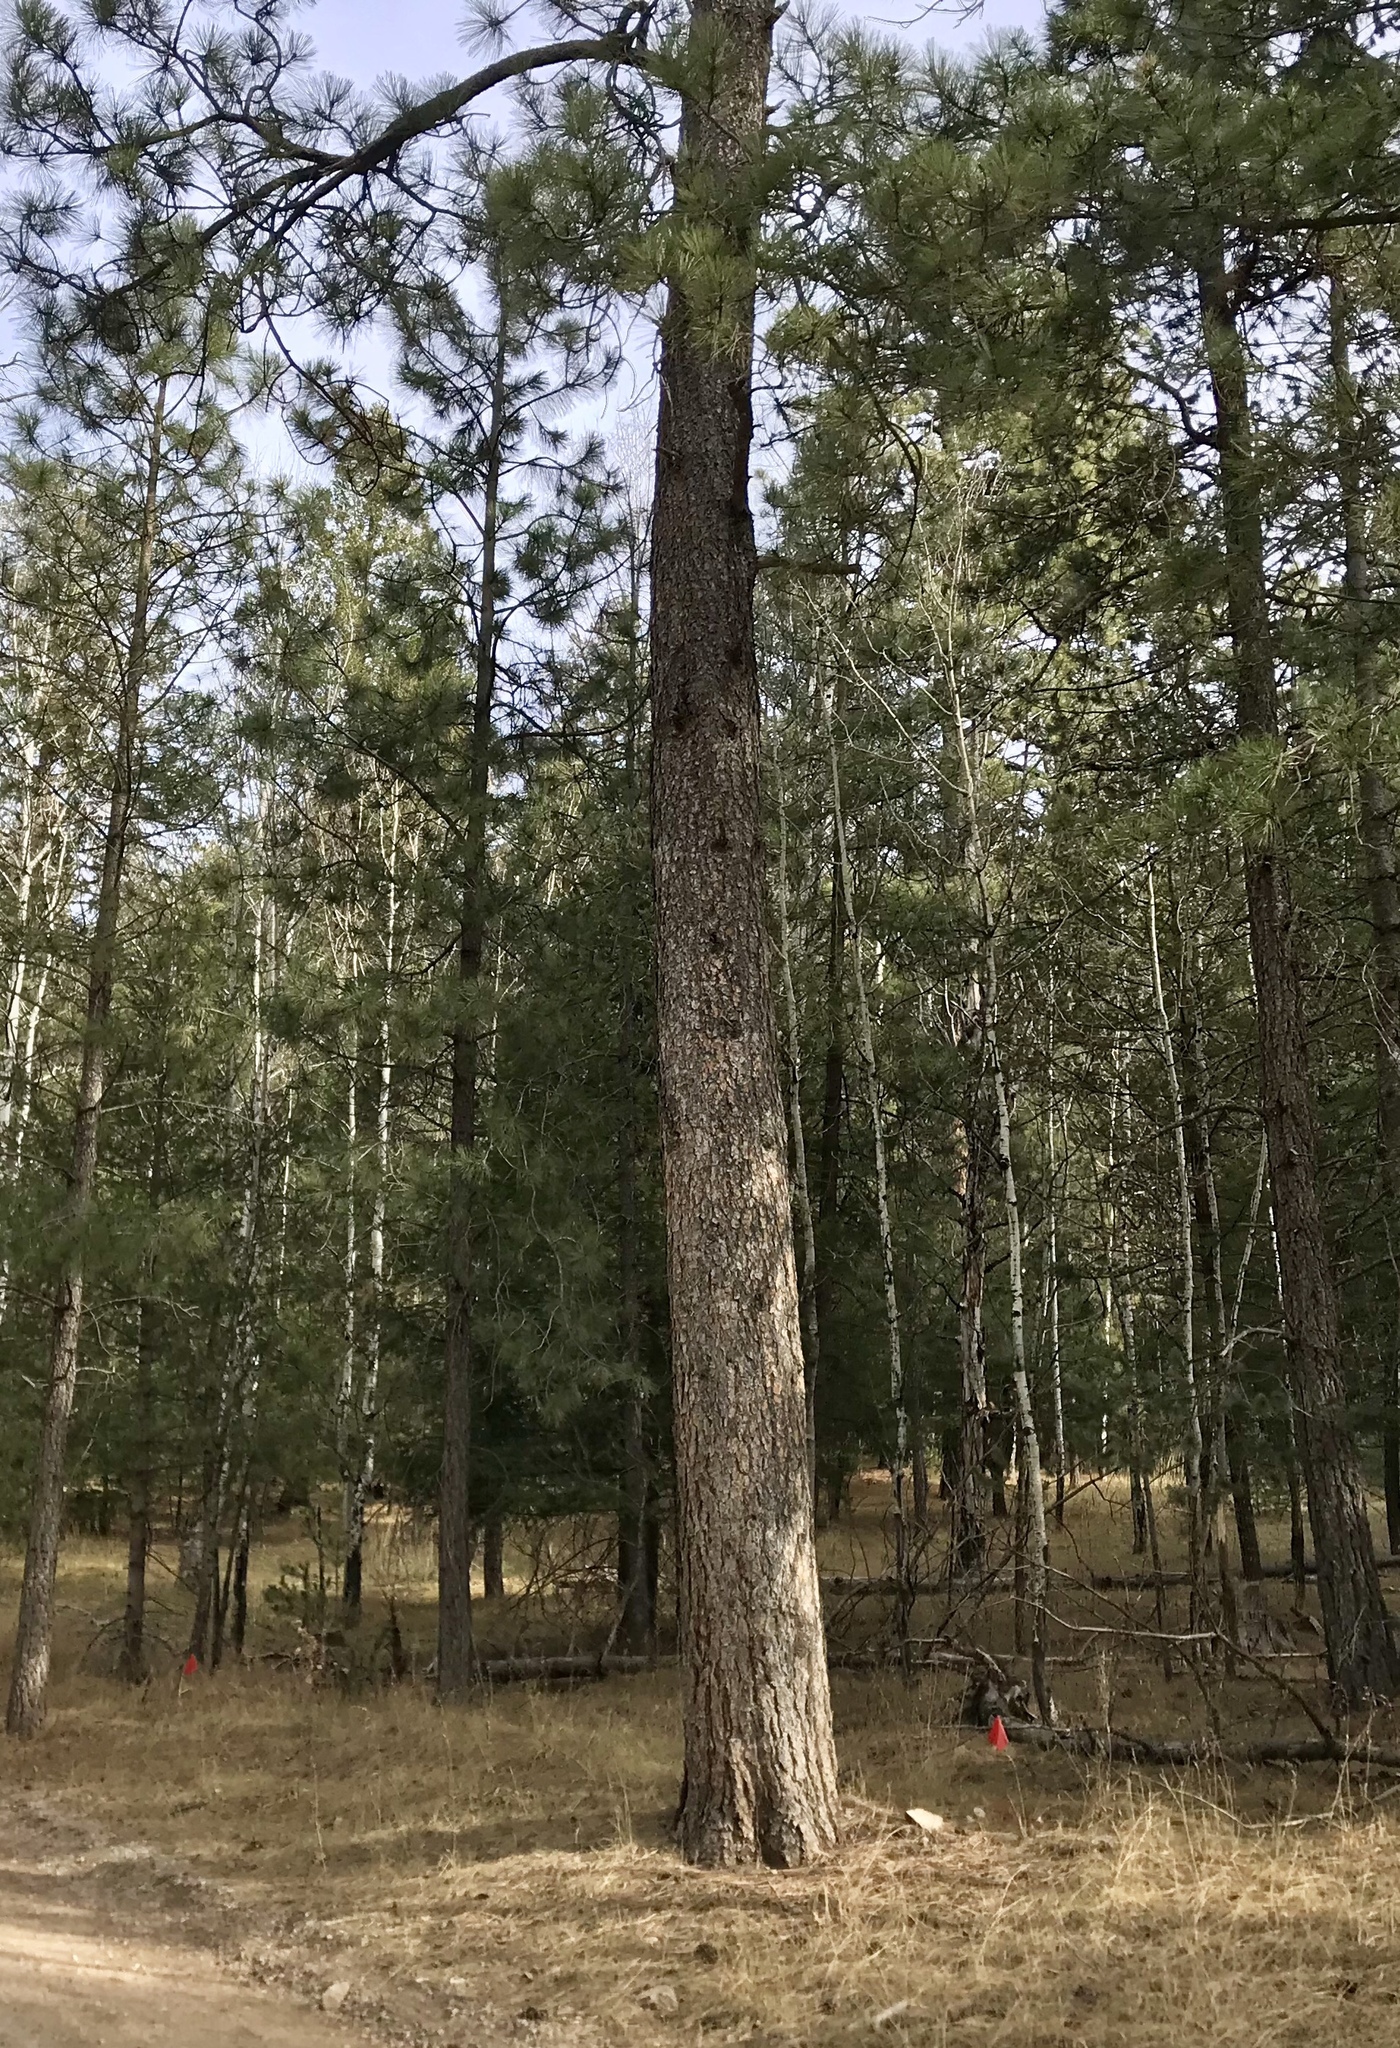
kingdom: Plantae
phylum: Tracheophyta
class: Pinopsida
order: Pinales
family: Pinaceae
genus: Pinus
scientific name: Pinus ponderosa
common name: Western yellow-pine
